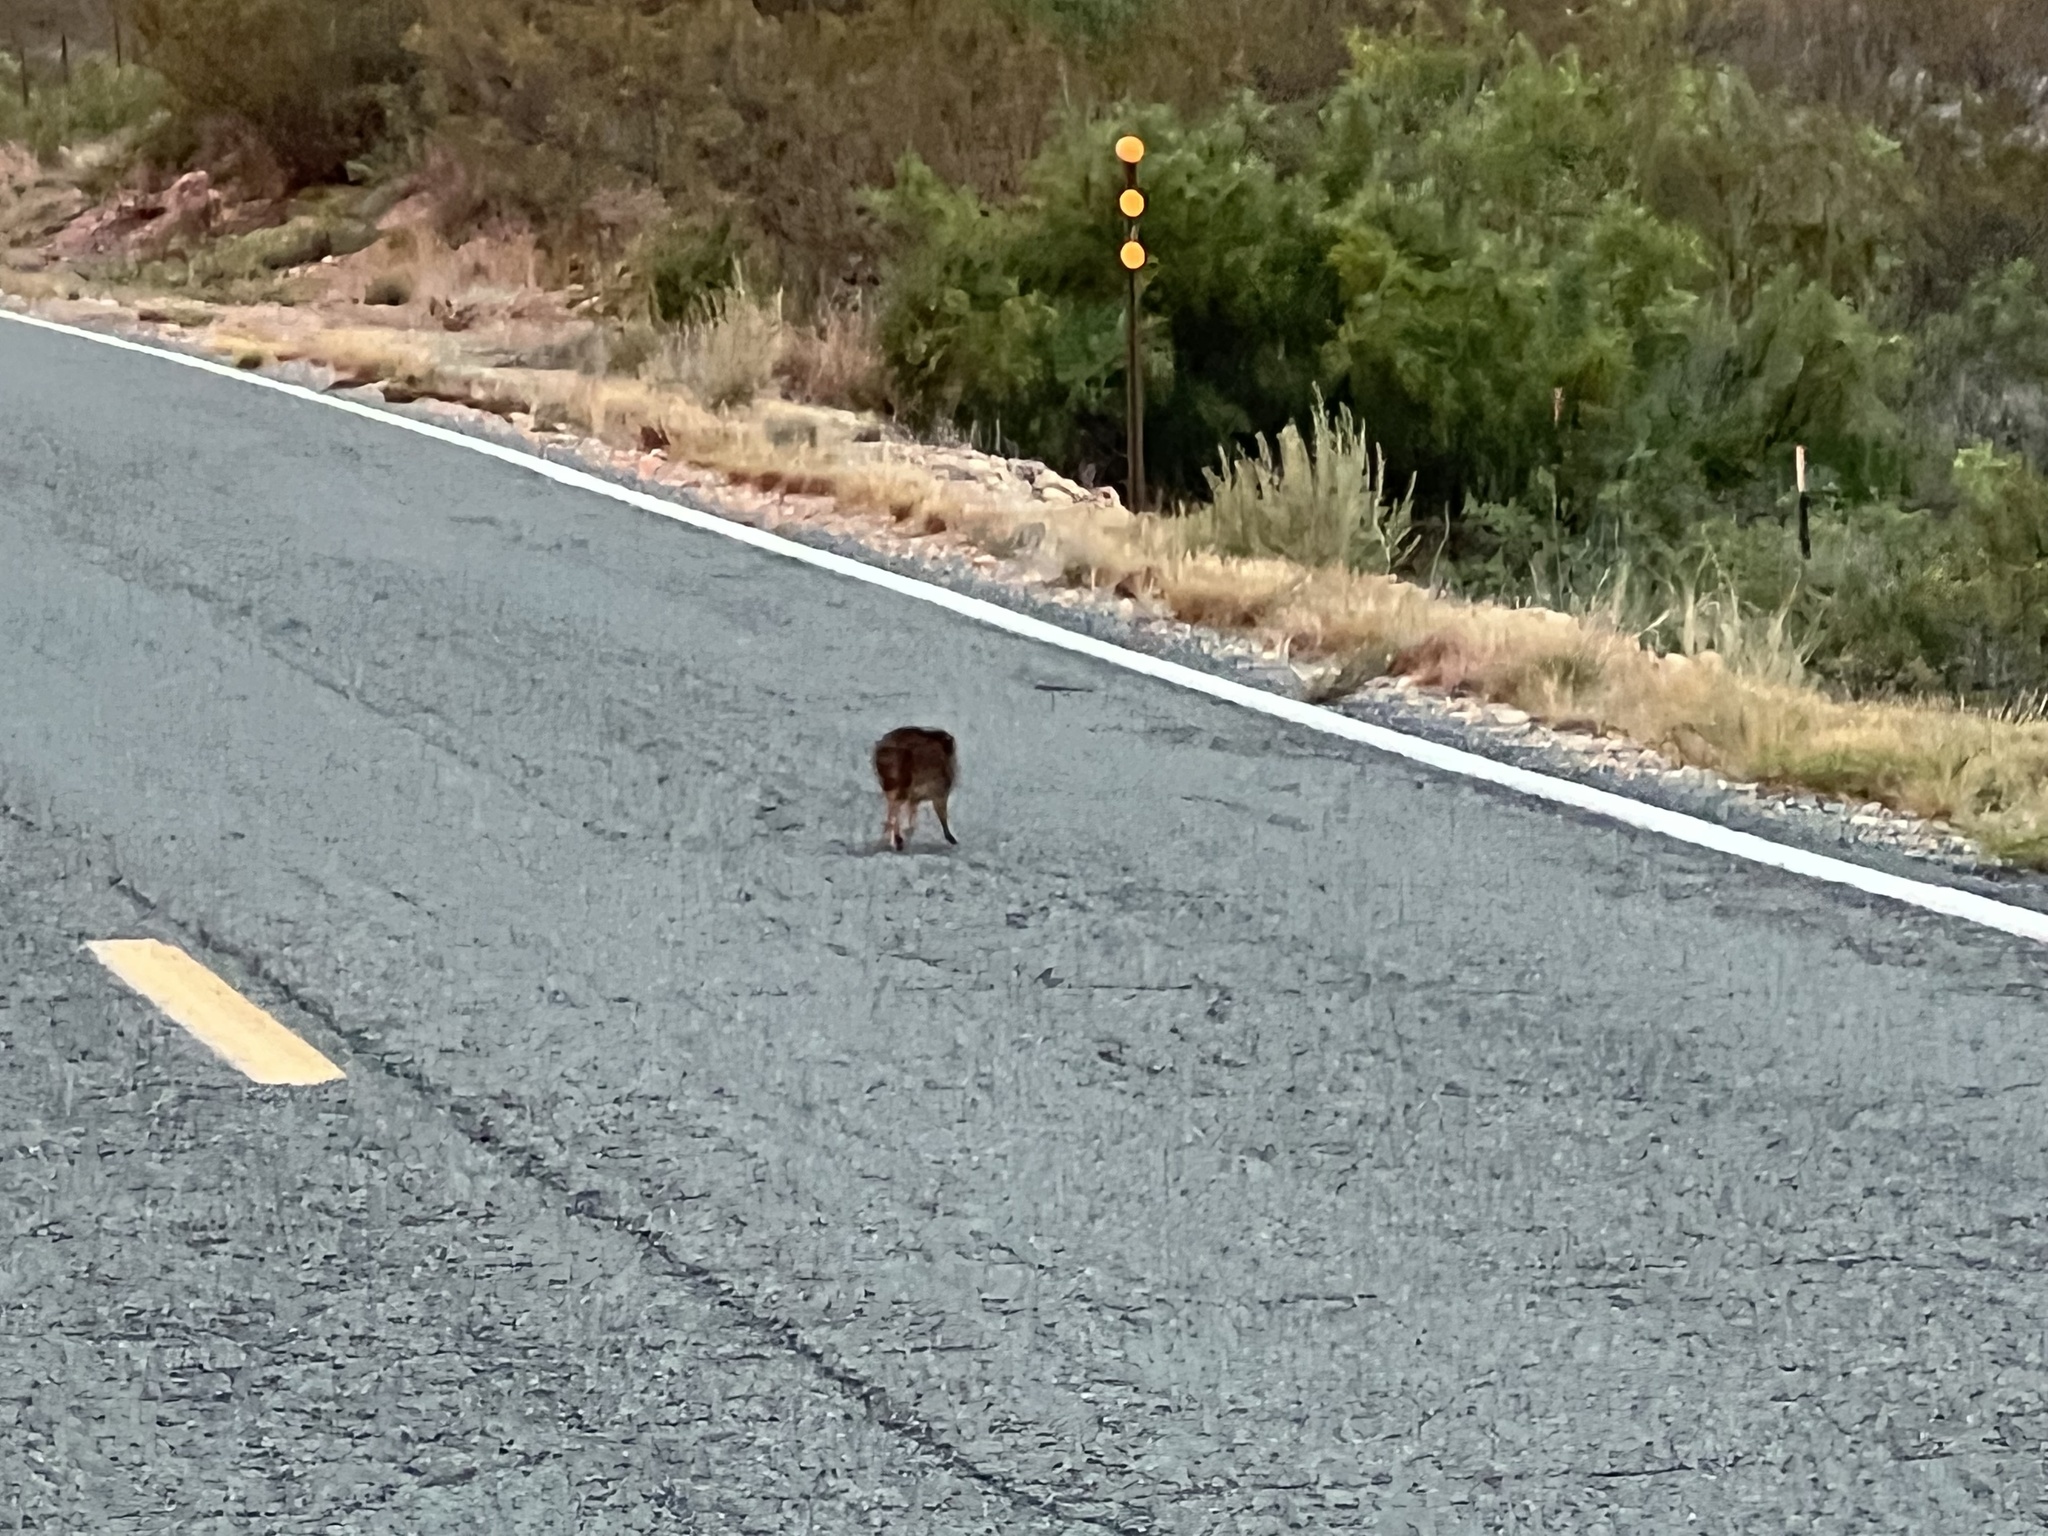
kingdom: Animalia
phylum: Chordata
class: Mammalia
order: Artiodactyla
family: Tayassuidae
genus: Pecari
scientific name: Pecari tajacu
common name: Collared peccary
